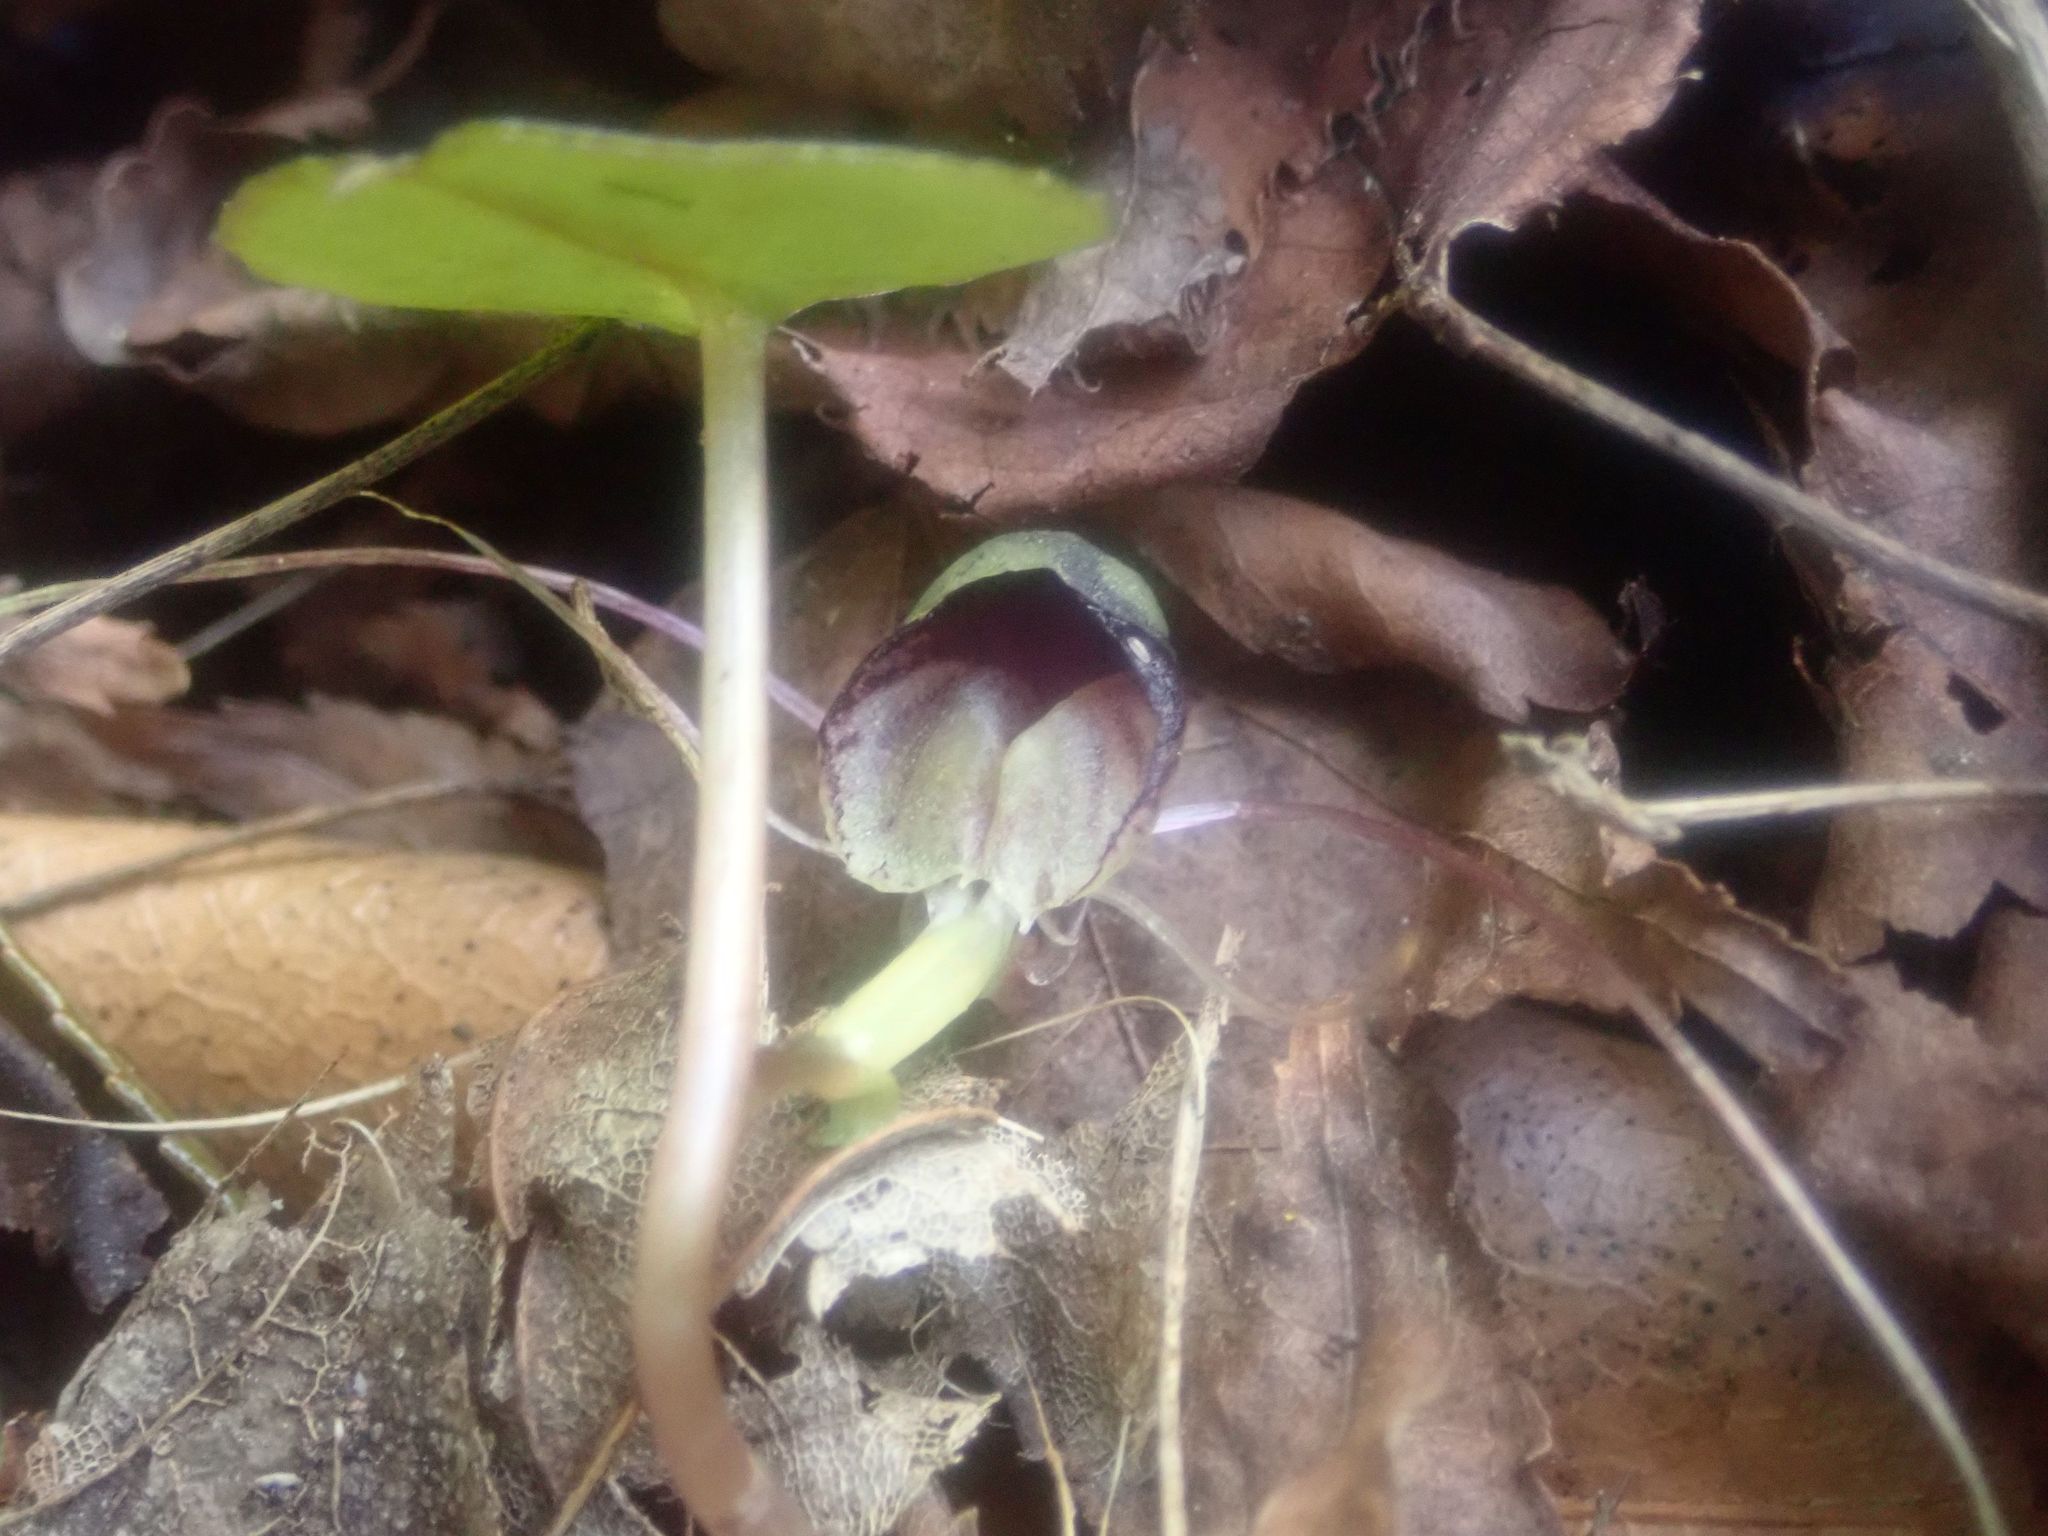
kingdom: Plantae
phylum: Tracheophyta
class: Liliopsida
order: Asparagales
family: Orchidaceae
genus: Corybas
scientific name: Corybas vitreus
